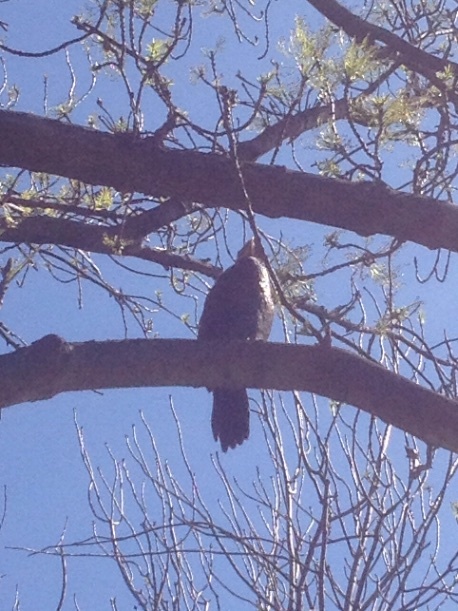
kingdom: Animalia
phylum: Chordata
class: Aves
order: Suliformes
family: Phalacrocoracidae
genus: Microcarbo
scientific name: Microcarbo melanoleucos
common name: Little pied cormorant
